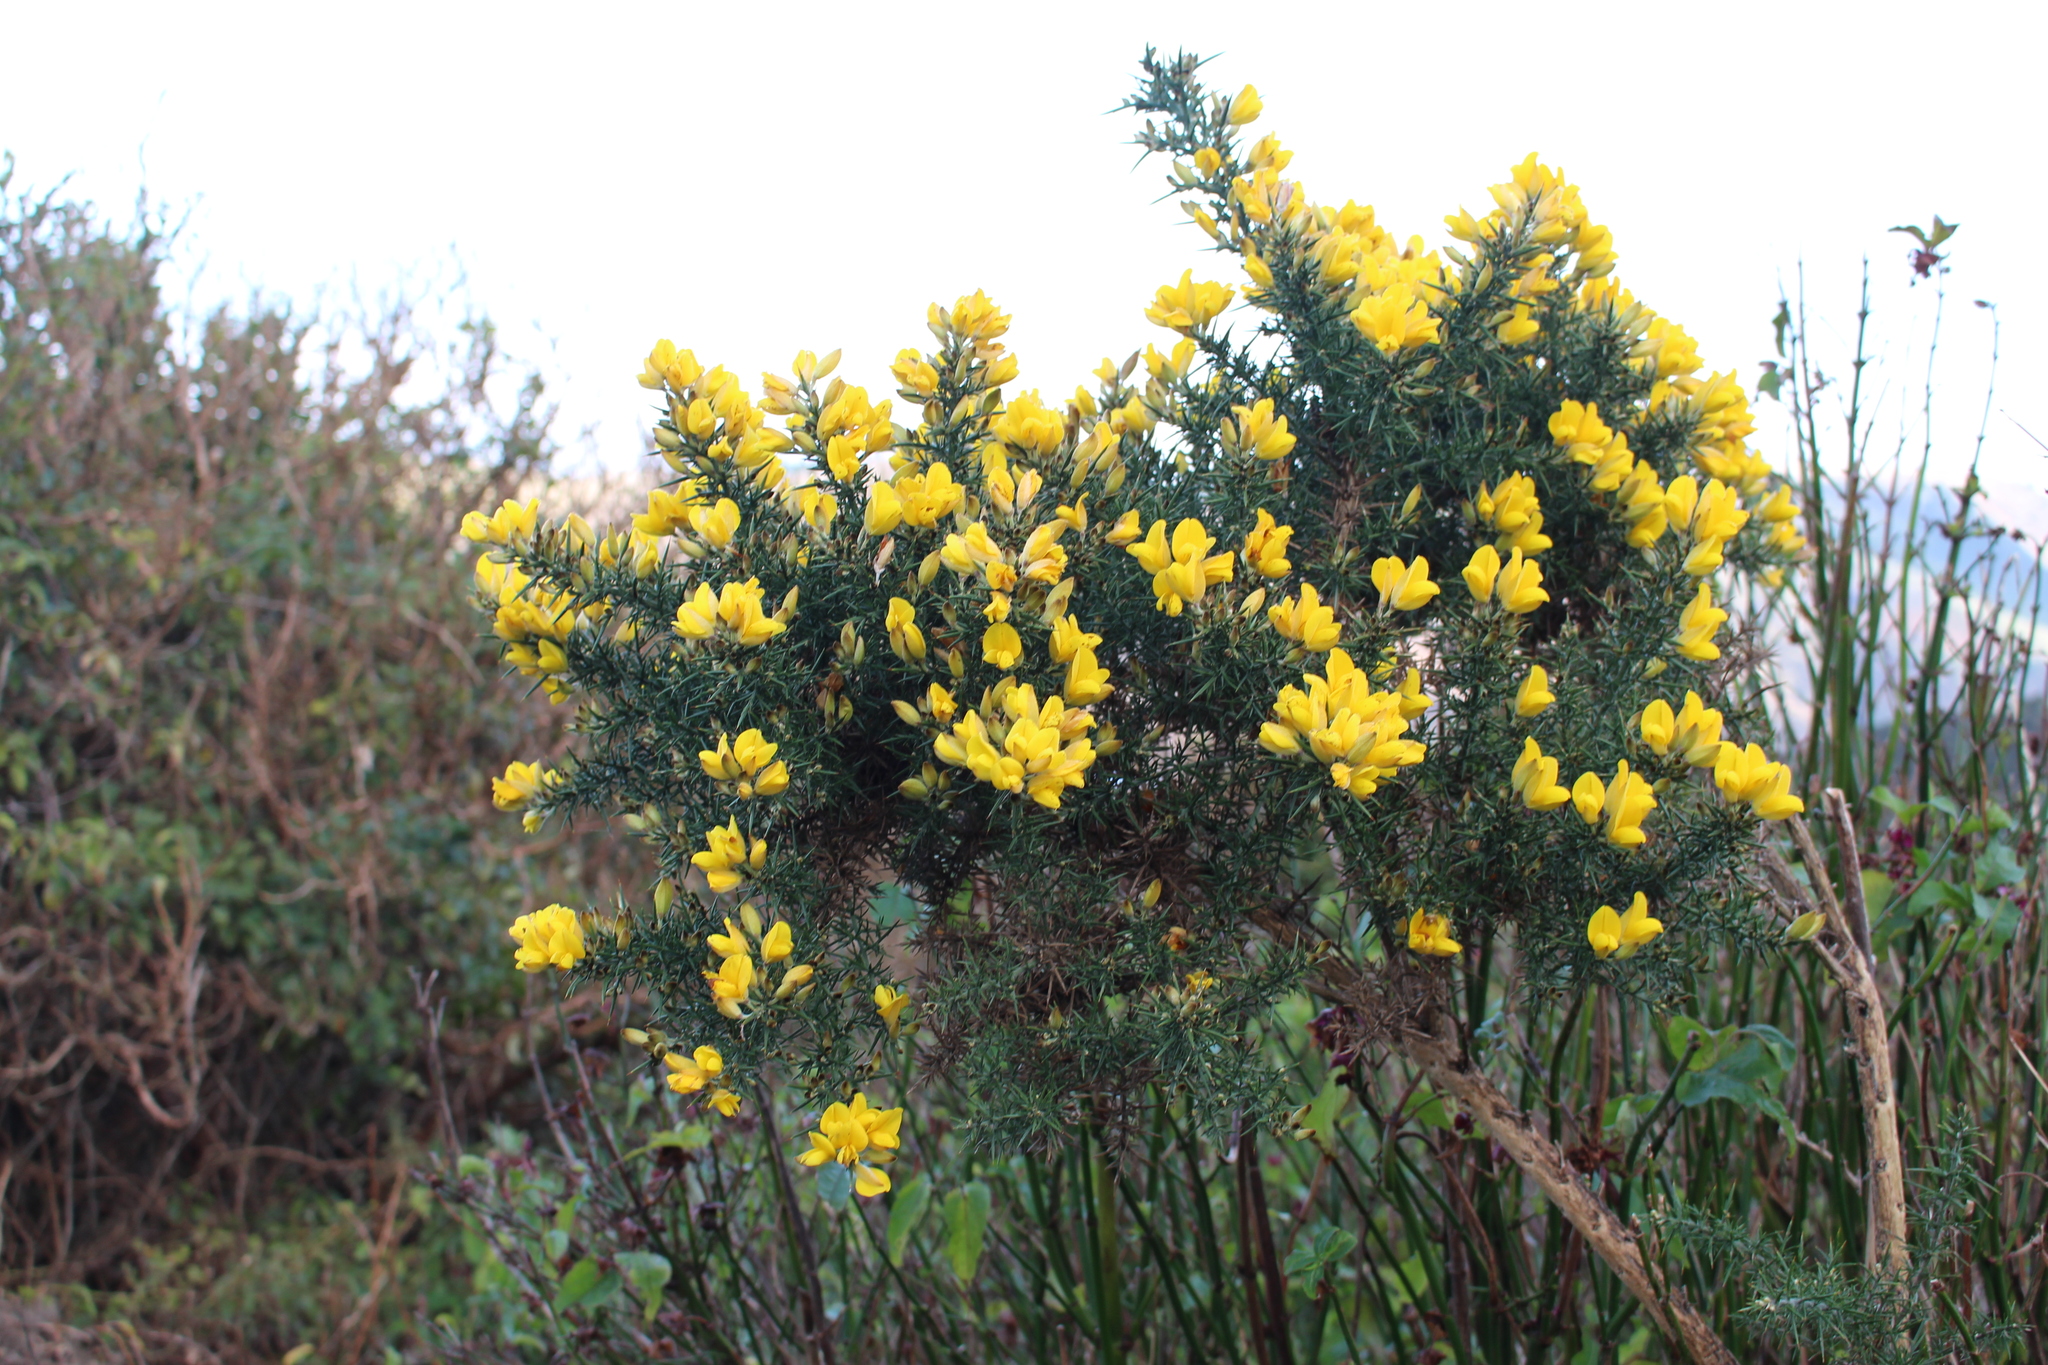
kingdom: Plantae
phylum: Tracheophyta
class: Magnoliopsida
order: Fabales
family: Fabaceae
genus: Ulex
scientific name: Ulex europaeus
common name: Common gorse
